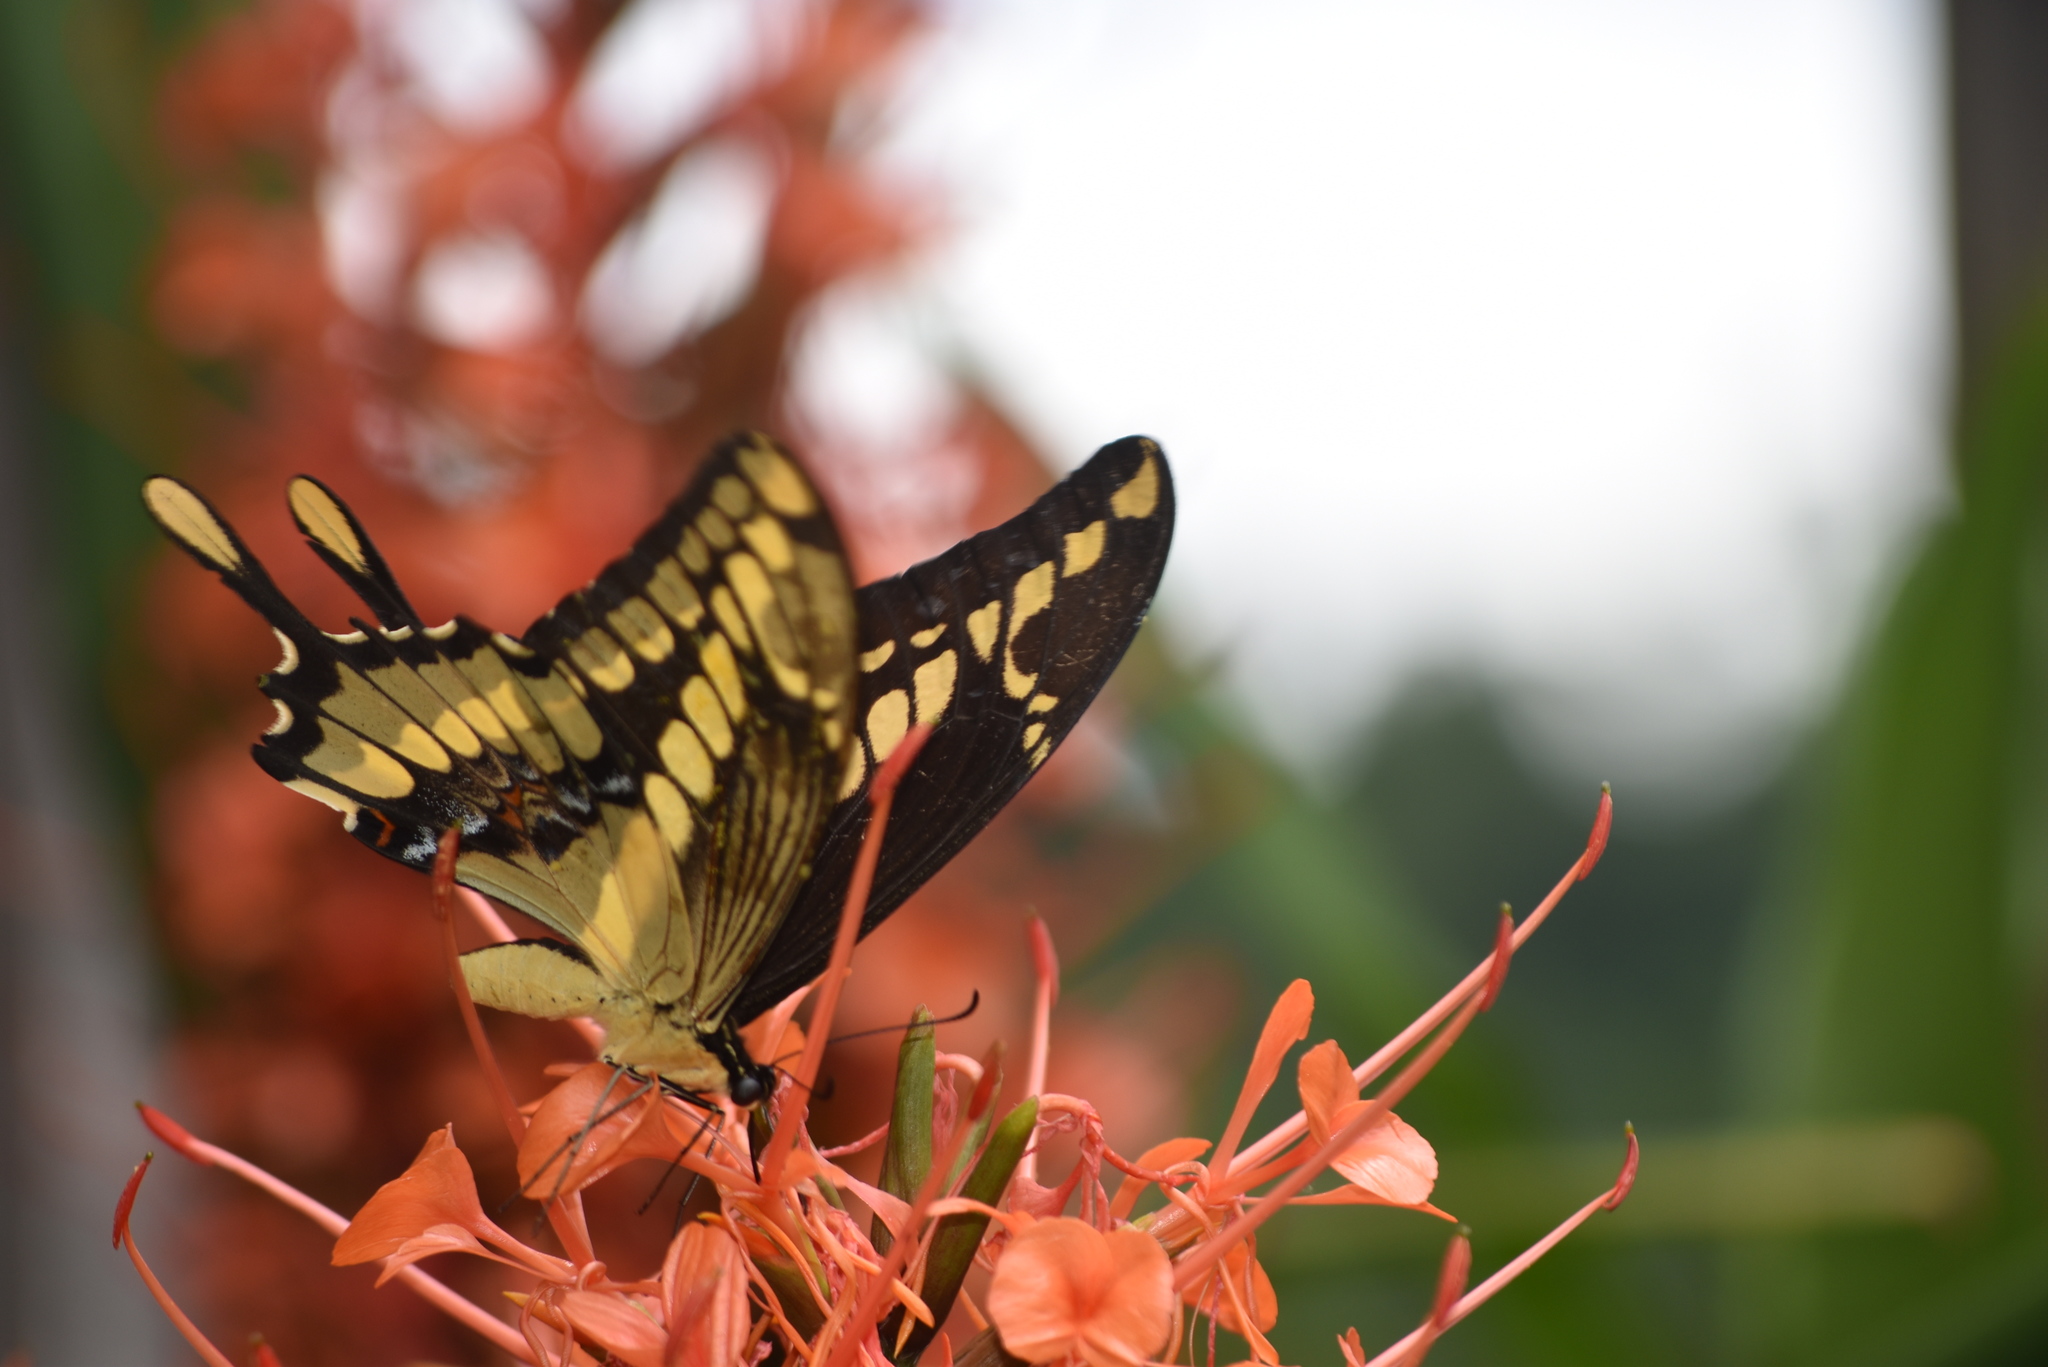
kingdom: Animalia
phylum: Arthropoda
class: Insecta
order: Lepidoptera
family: Papilionidae
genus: Papilio
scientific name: Papilio thoas
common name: King swallowtail
